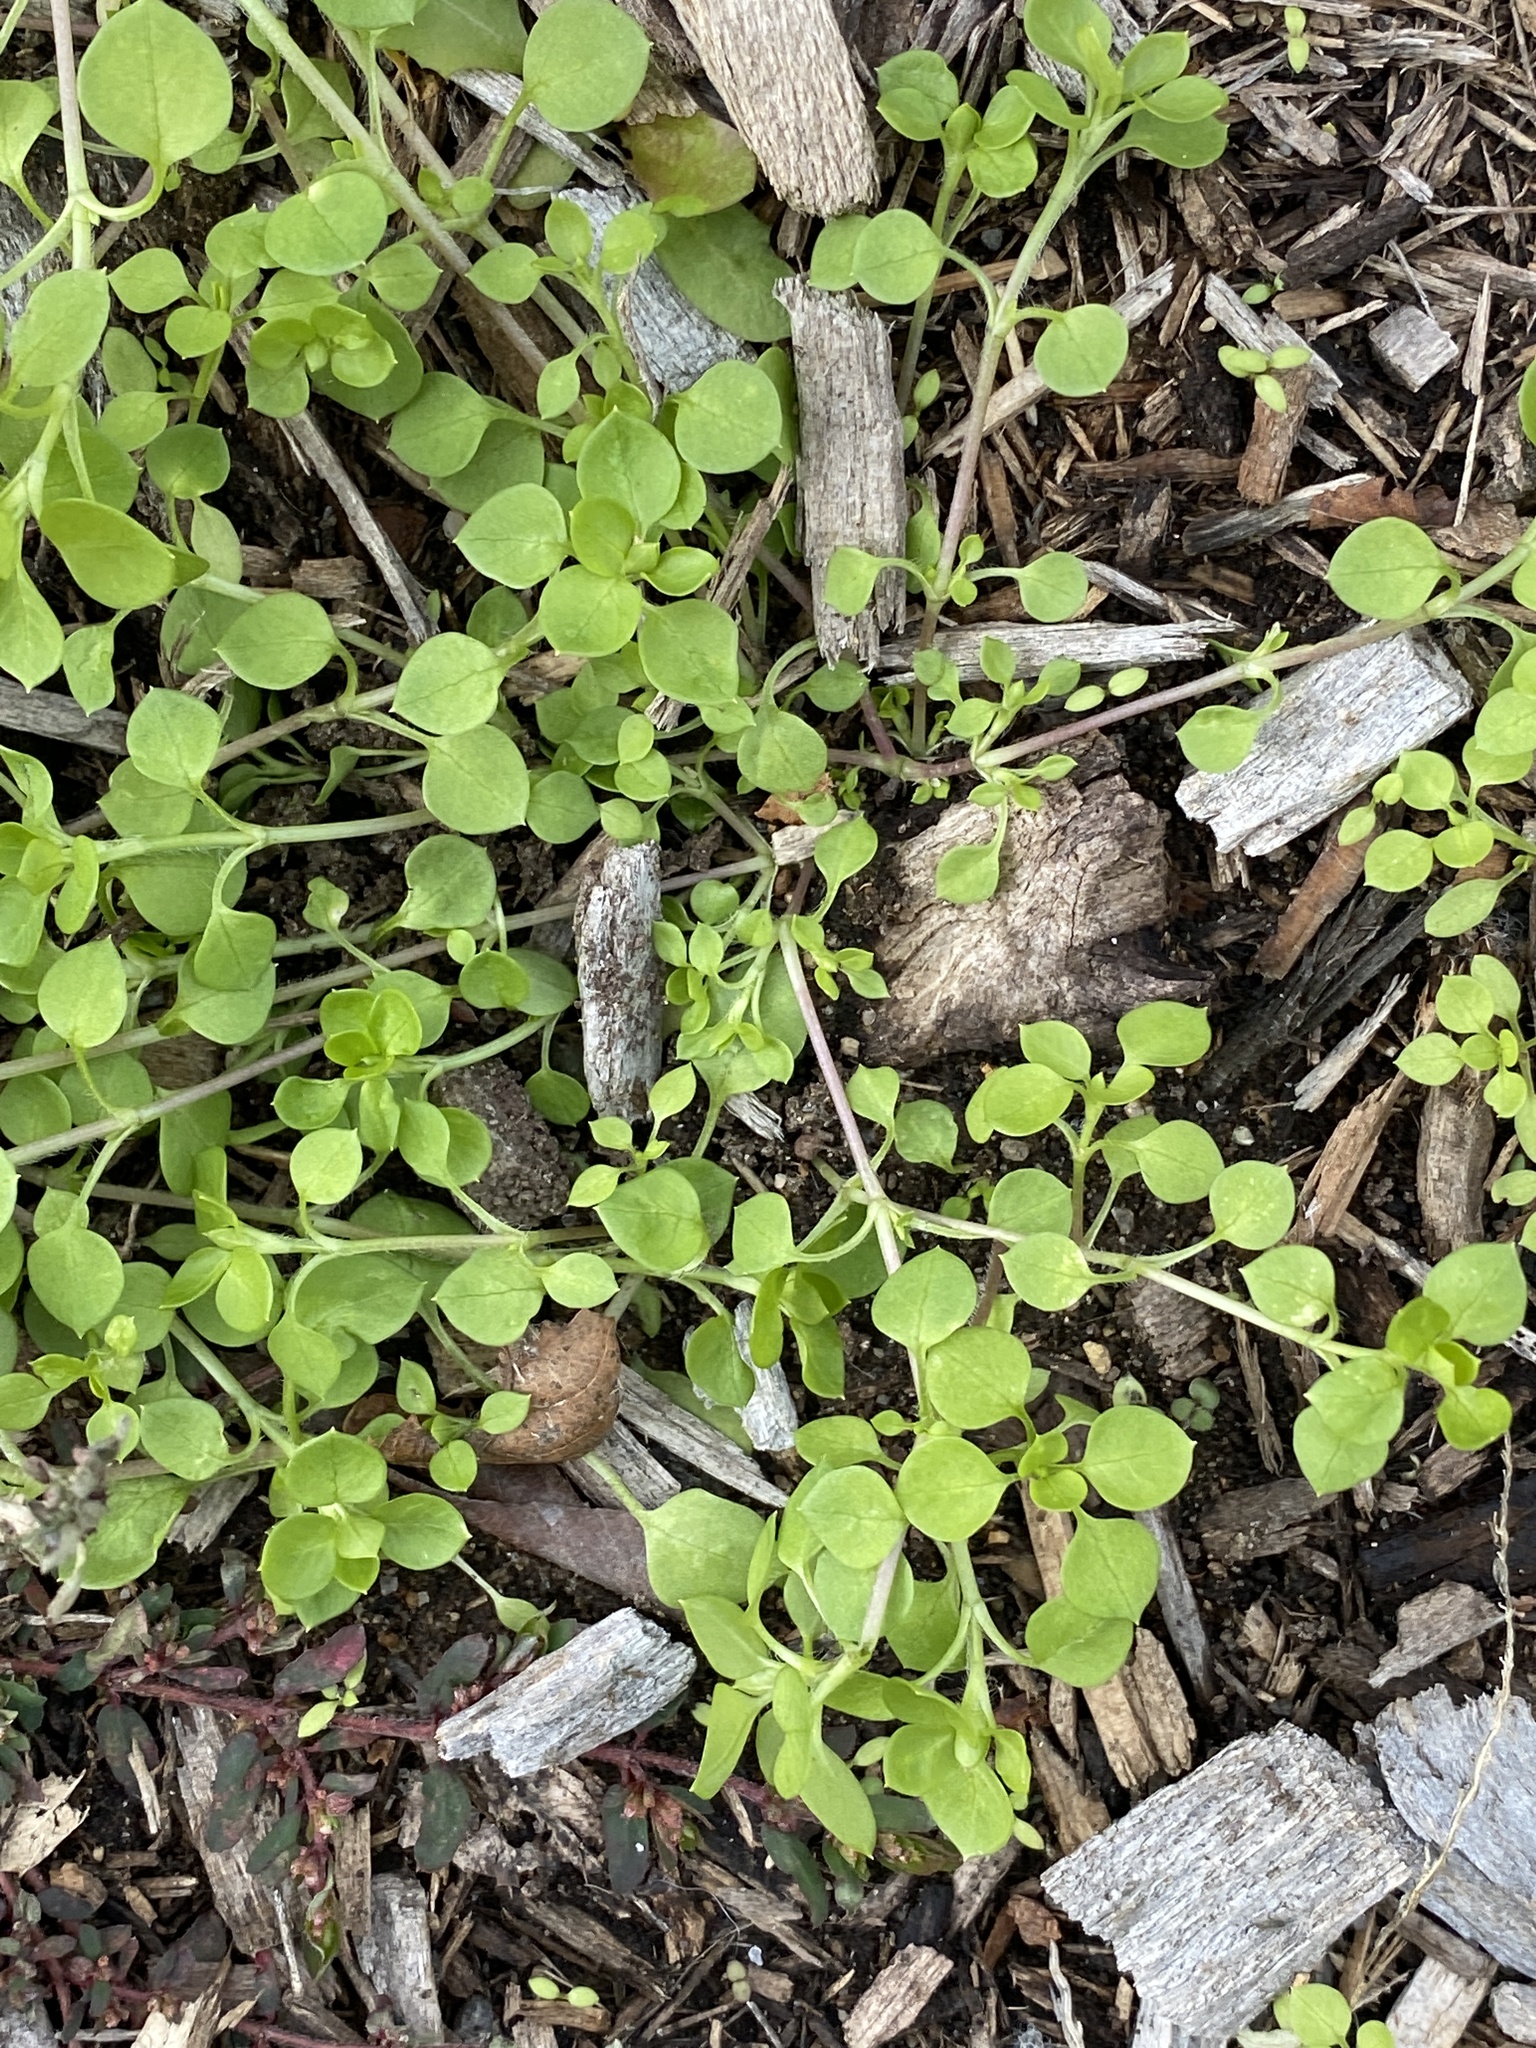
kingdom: Plantae
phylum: Tracheophyta
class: Magnoliopsida
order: Caryophyllales
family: Caryophyllaceae
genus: Stellaria
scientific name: Stellaria media
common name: Common chickweed
